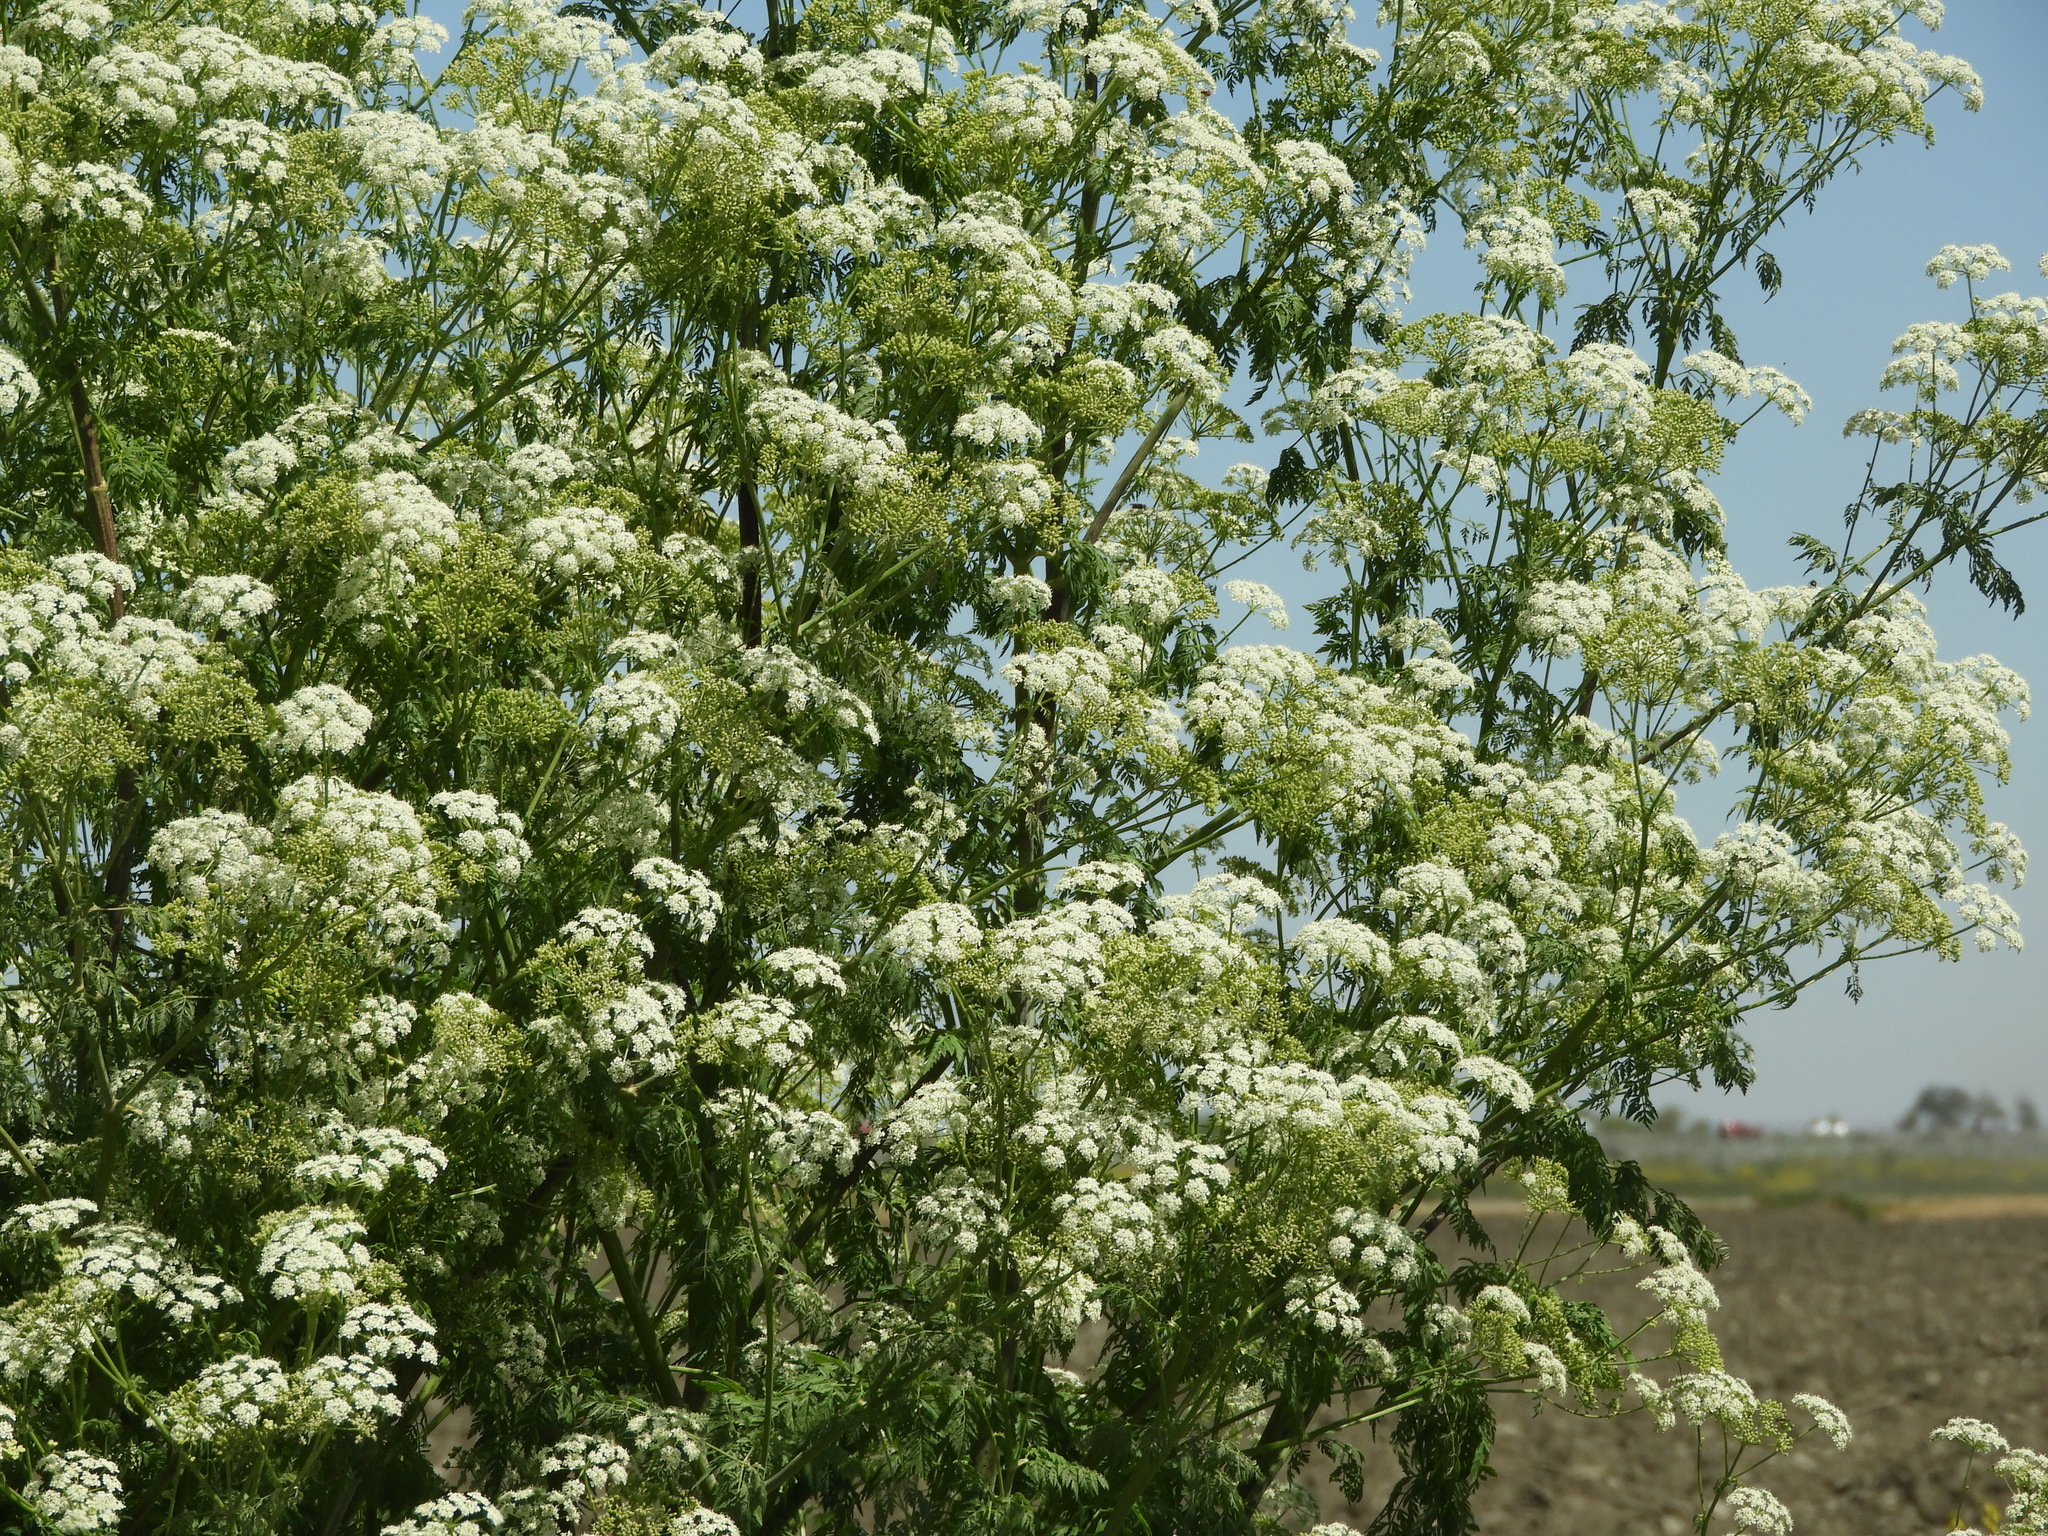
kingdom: Plantae
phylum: Tracheophyta
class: Magnoliopsida
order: Apiales
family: Apiaceae
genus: Conium
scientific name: Conium maculatum
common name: Hemlock
